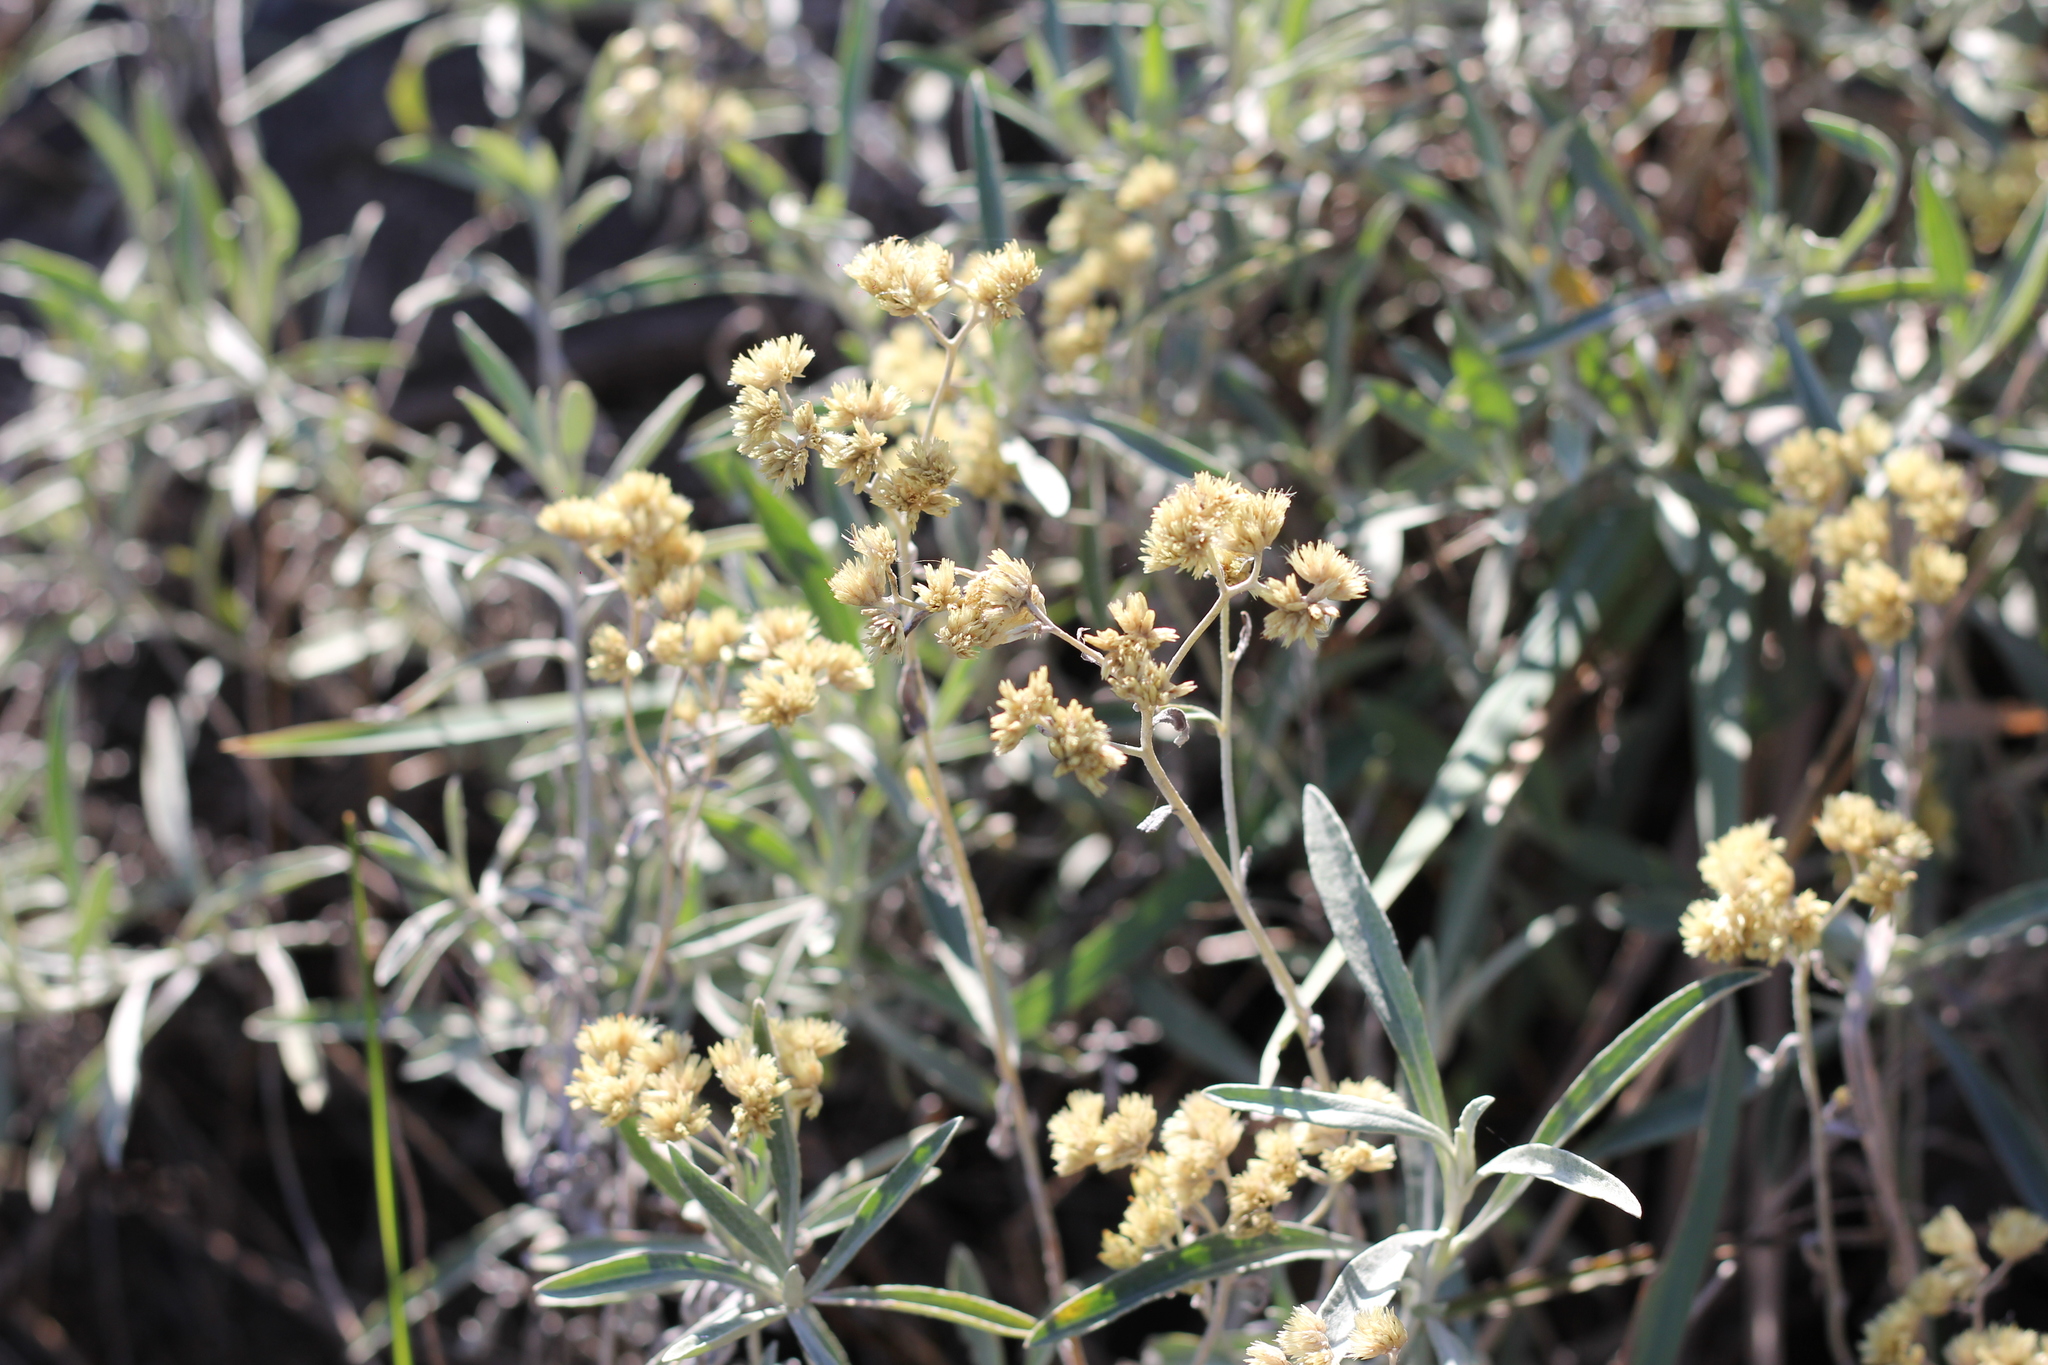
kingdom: Plantae
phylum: Tracheophyta
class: Magnoliopsida
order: Asterales
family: Asteraceae
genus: Achyrocline
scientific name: Achyrocline satureioides
